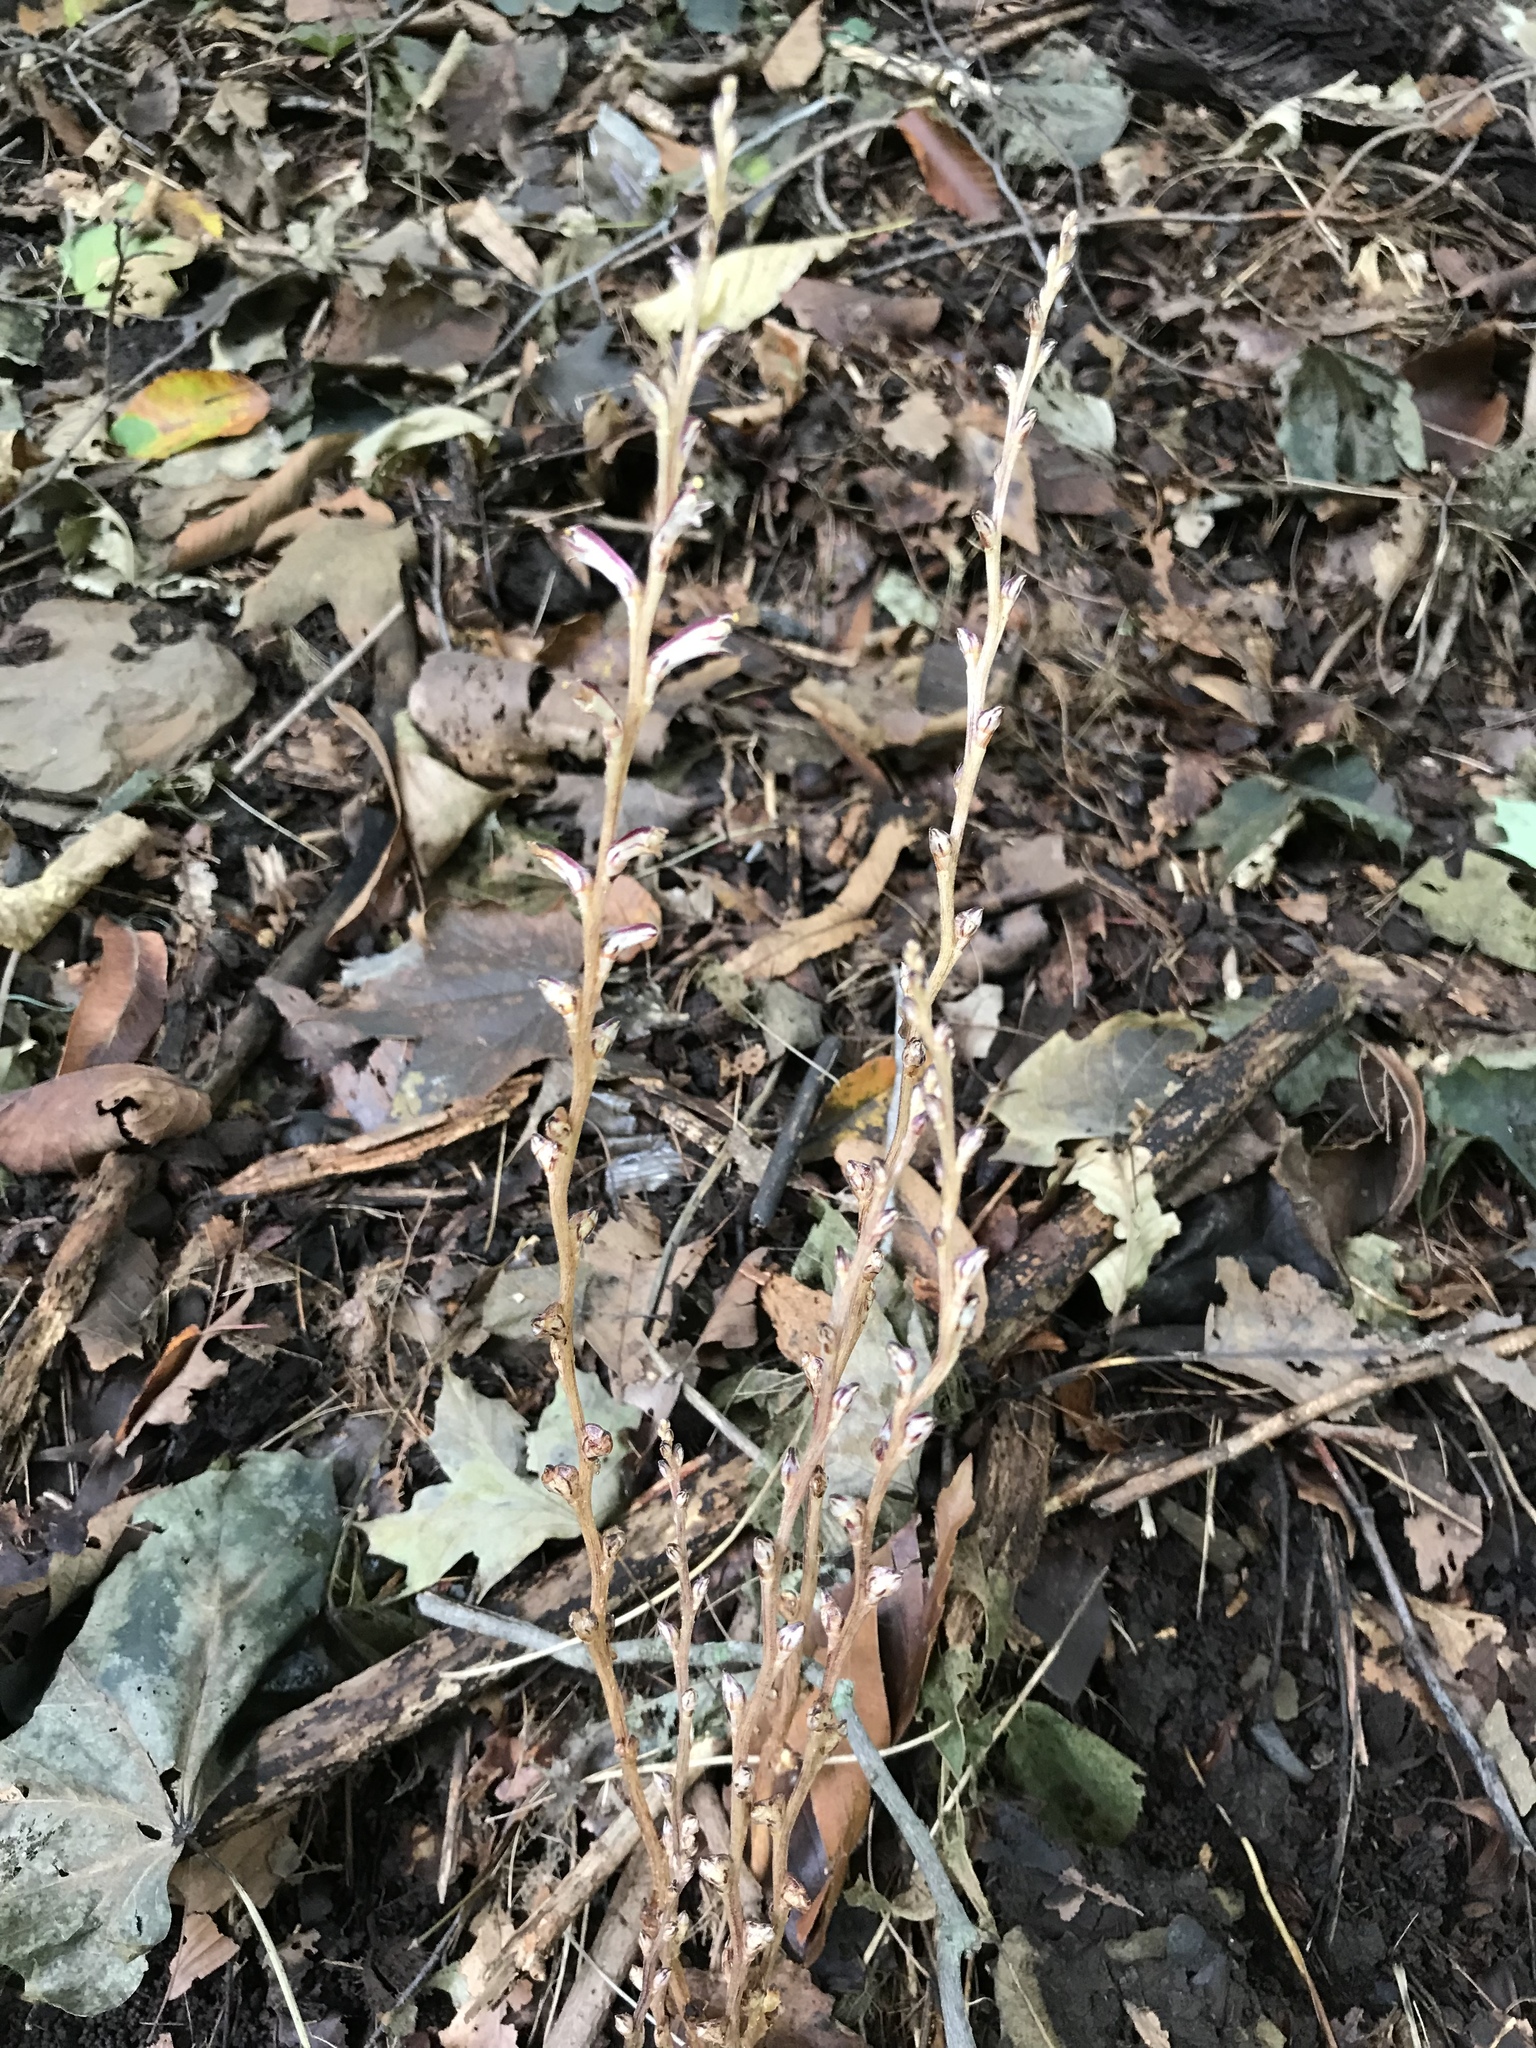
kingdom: Plantae
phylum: Tracheophyta
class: Magnoliopsida
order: Lamiales
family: Orobanchaceae
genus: Epifagus
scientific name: Epifagus virginiana
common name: Beechdrops
